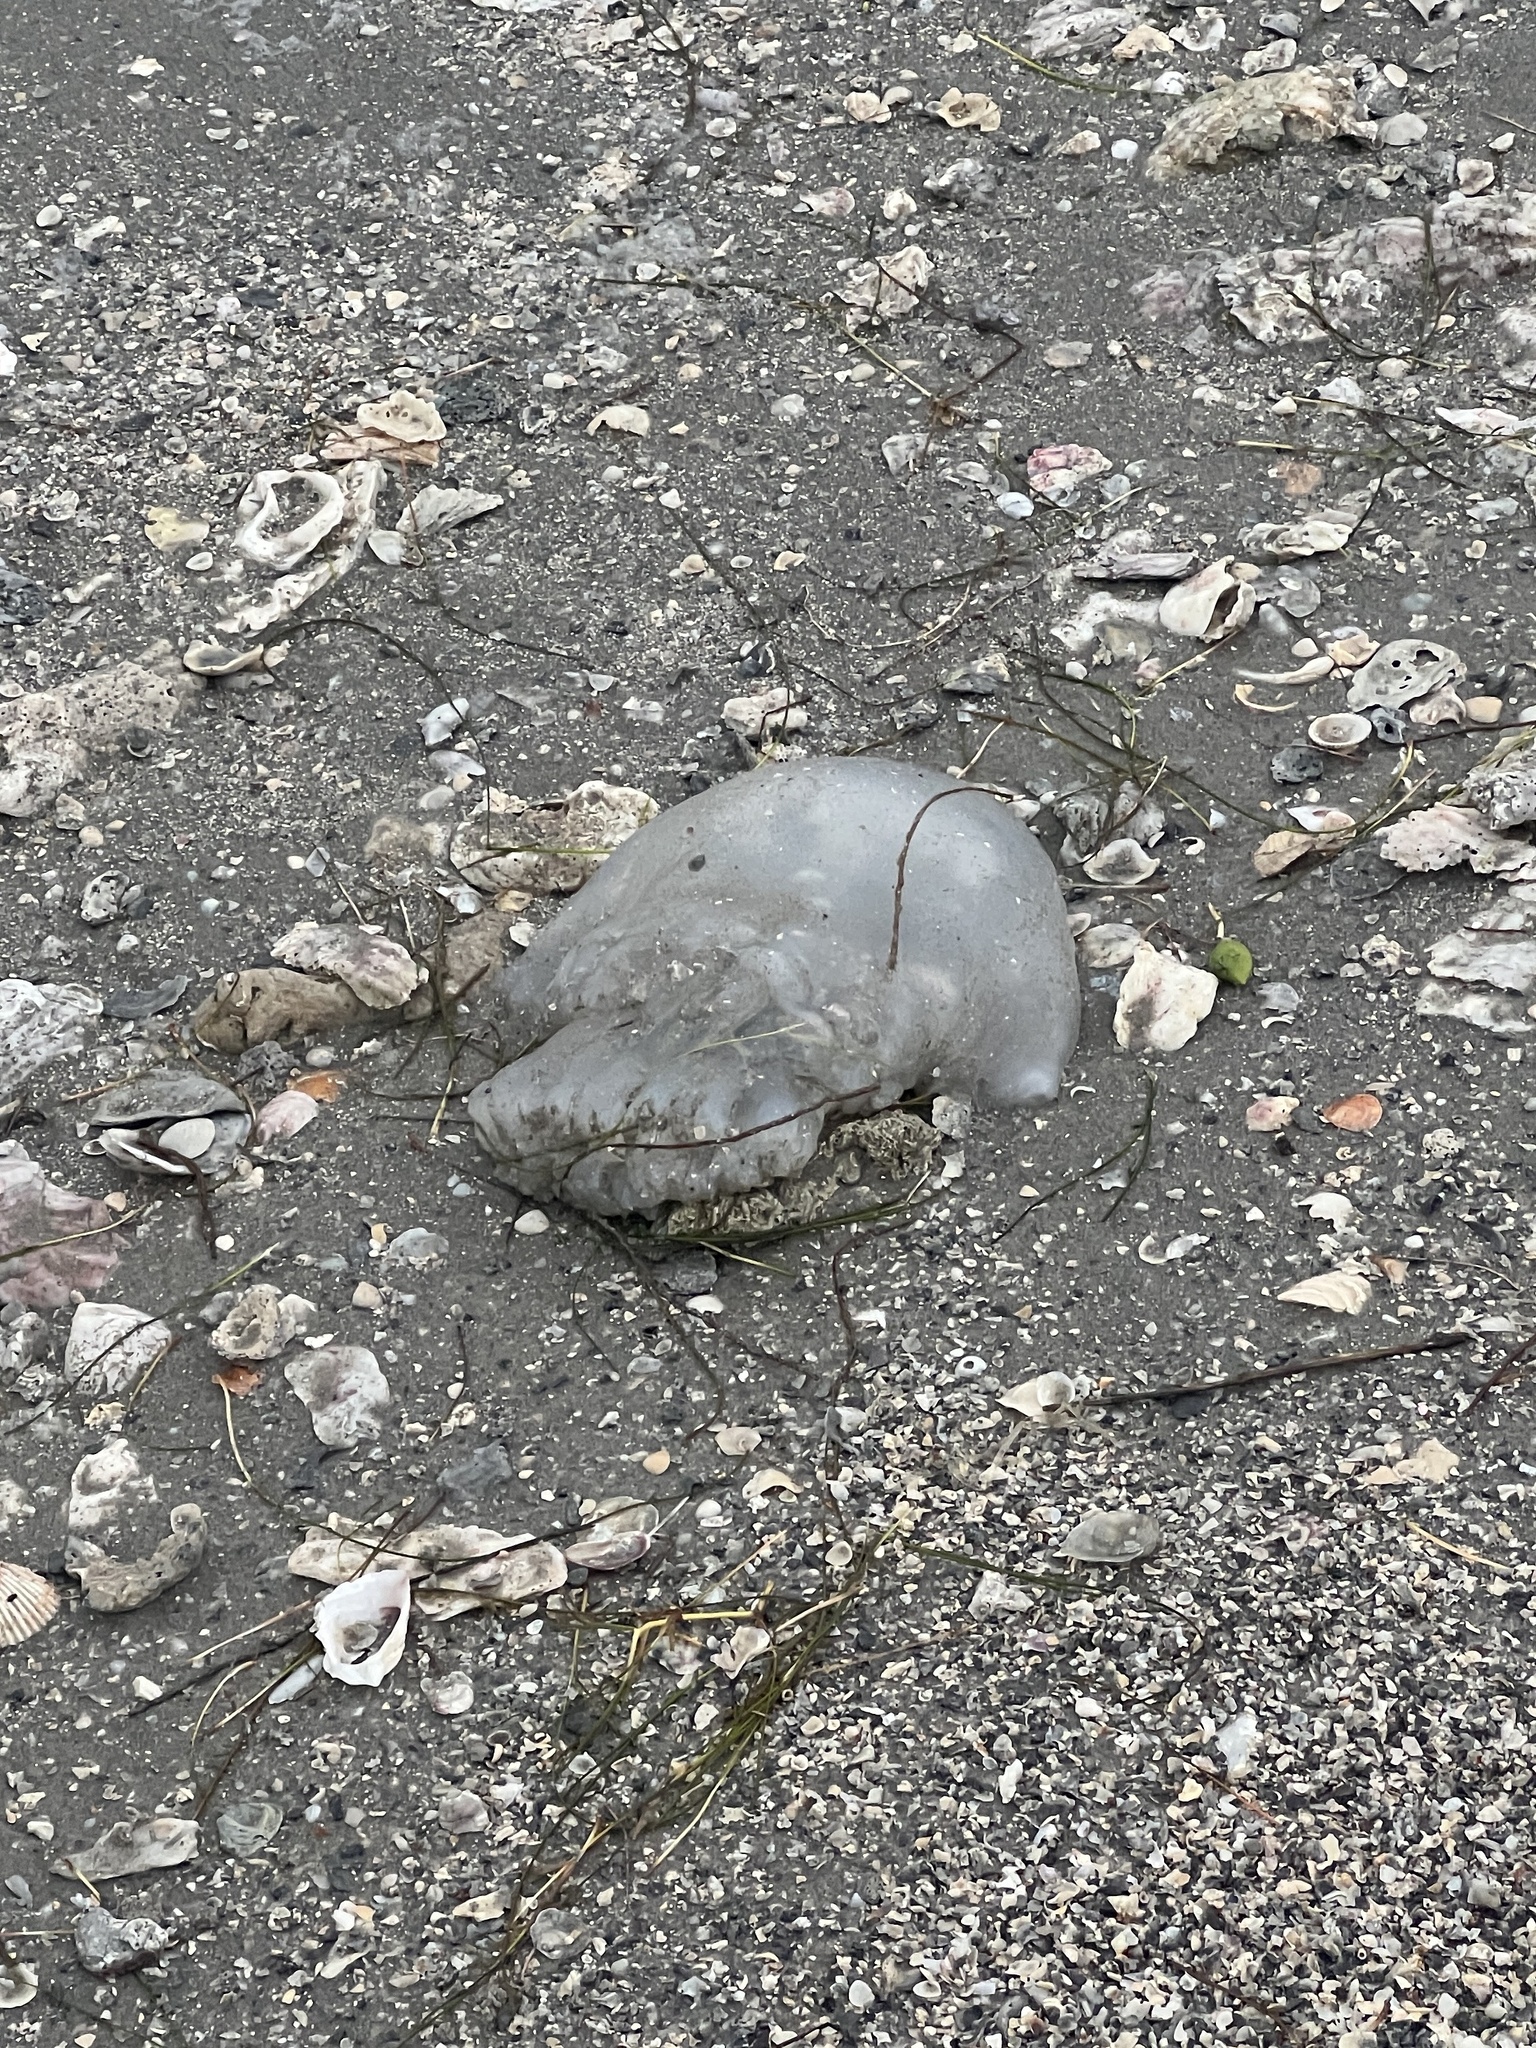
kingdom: Animalia
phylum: Cnidaria
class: Scyphozoa
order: Rhizostomeae
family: Stomolophidae
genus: Stomolophus
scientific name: Stomolophus meleagris
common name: Cabbagehead
